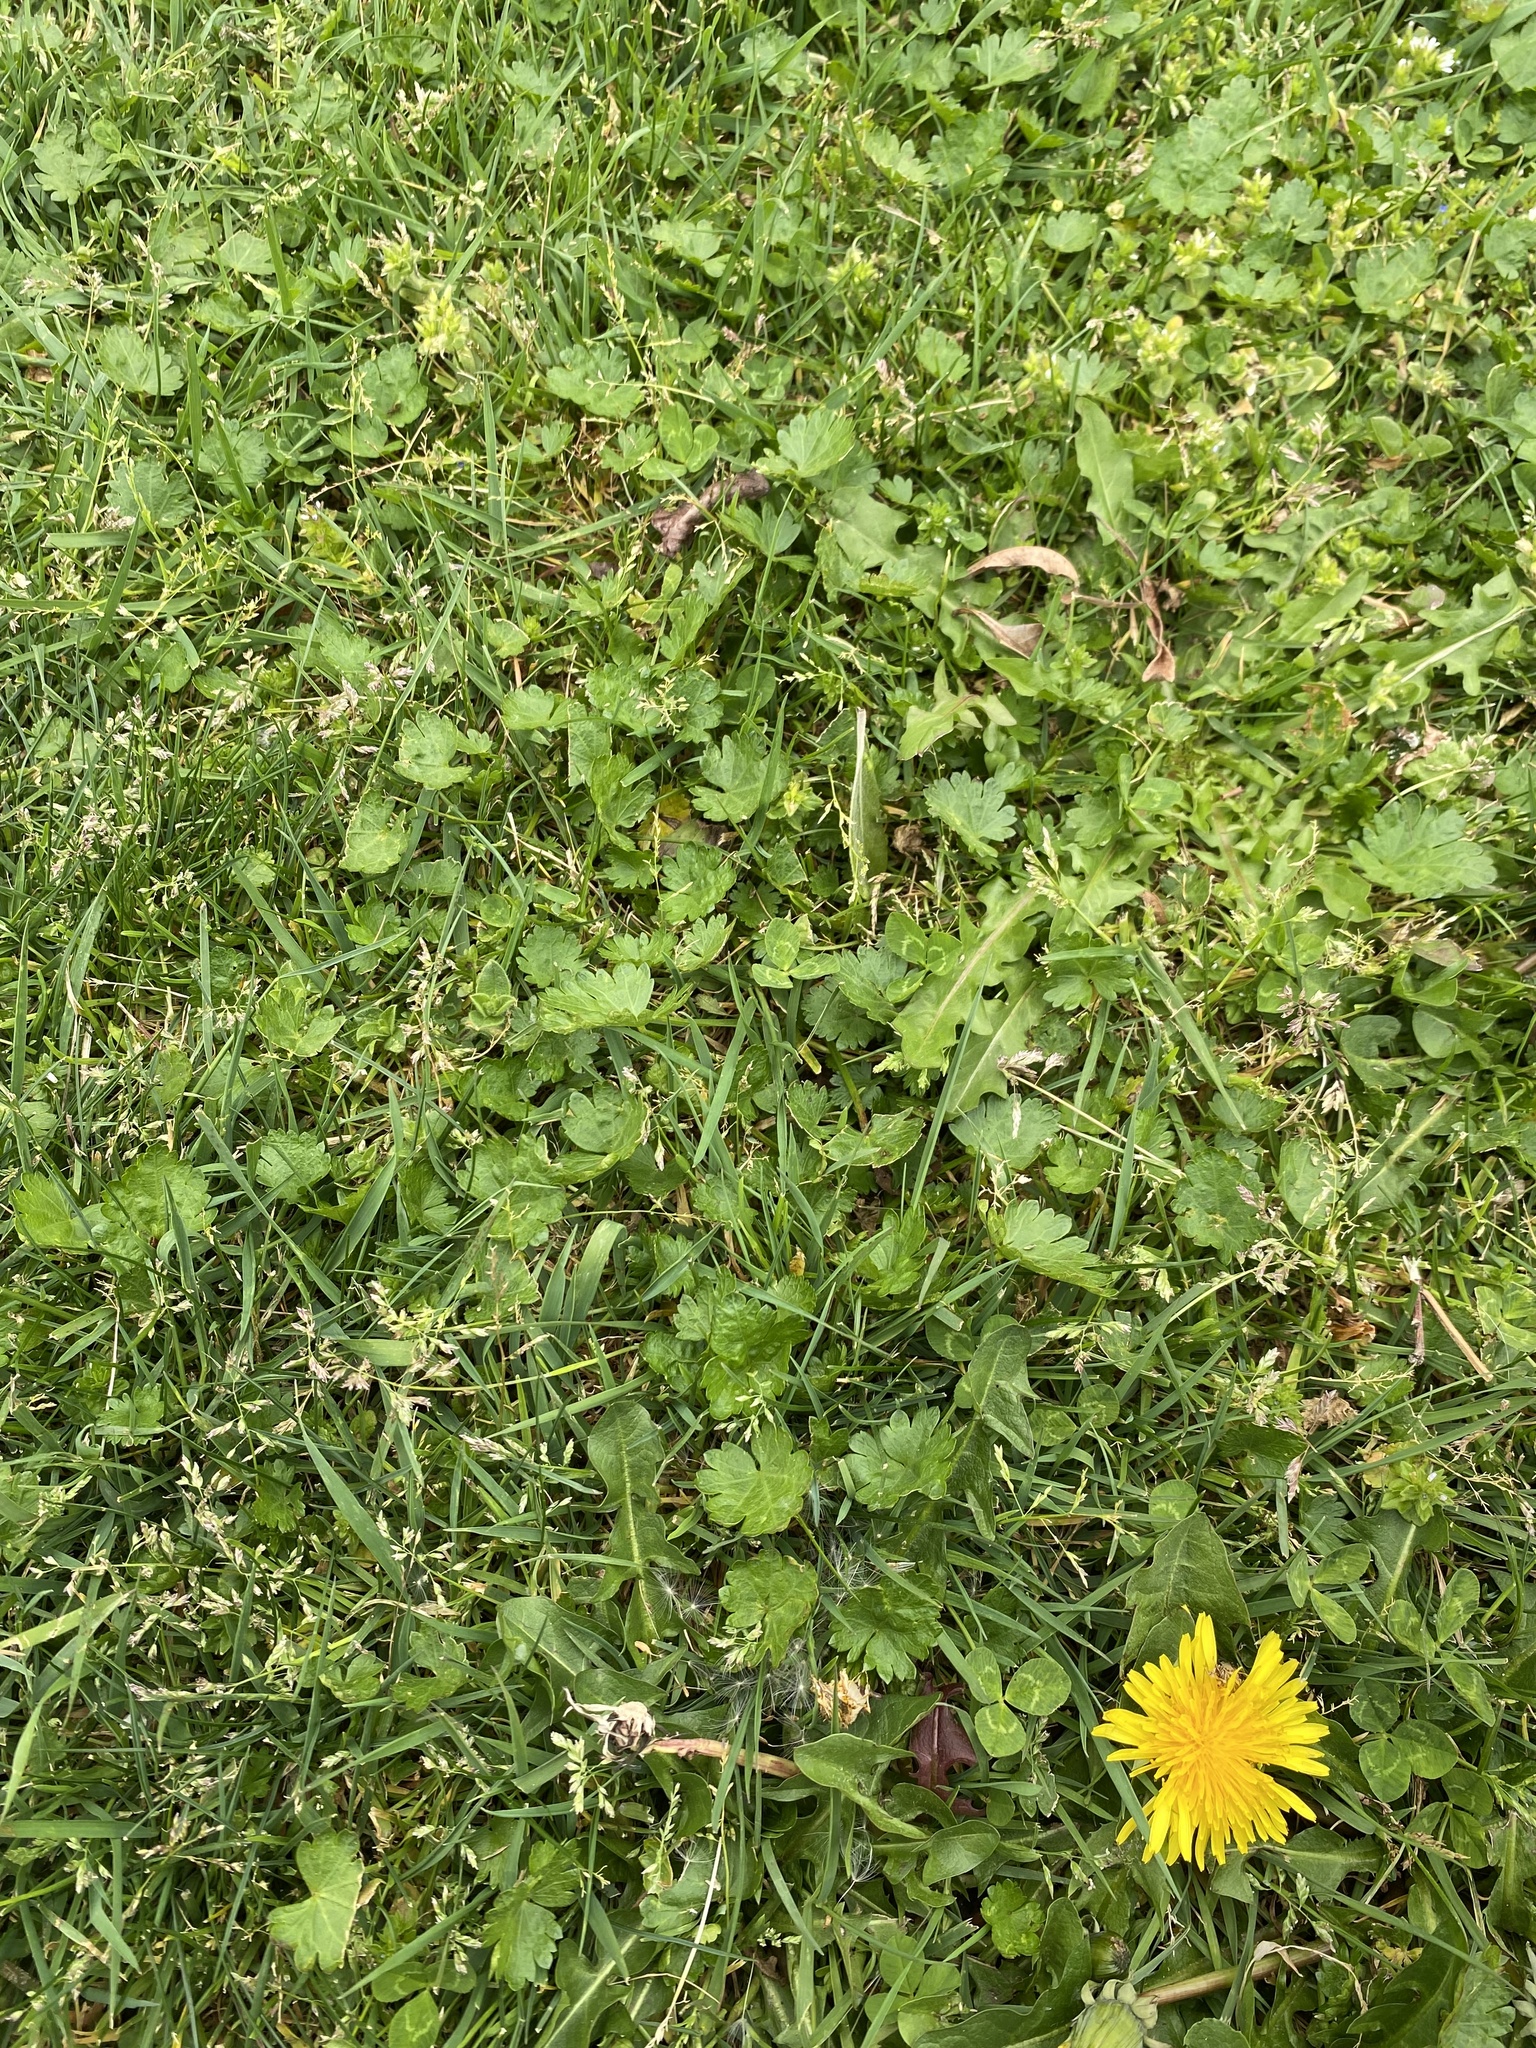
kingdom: Plantae
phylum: Tracheophyta
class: Magnoliopsida
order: Malvales
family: Malvaceae
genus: Modiola
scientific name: Modiola caroliniana
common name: Carolina bristlemallow
